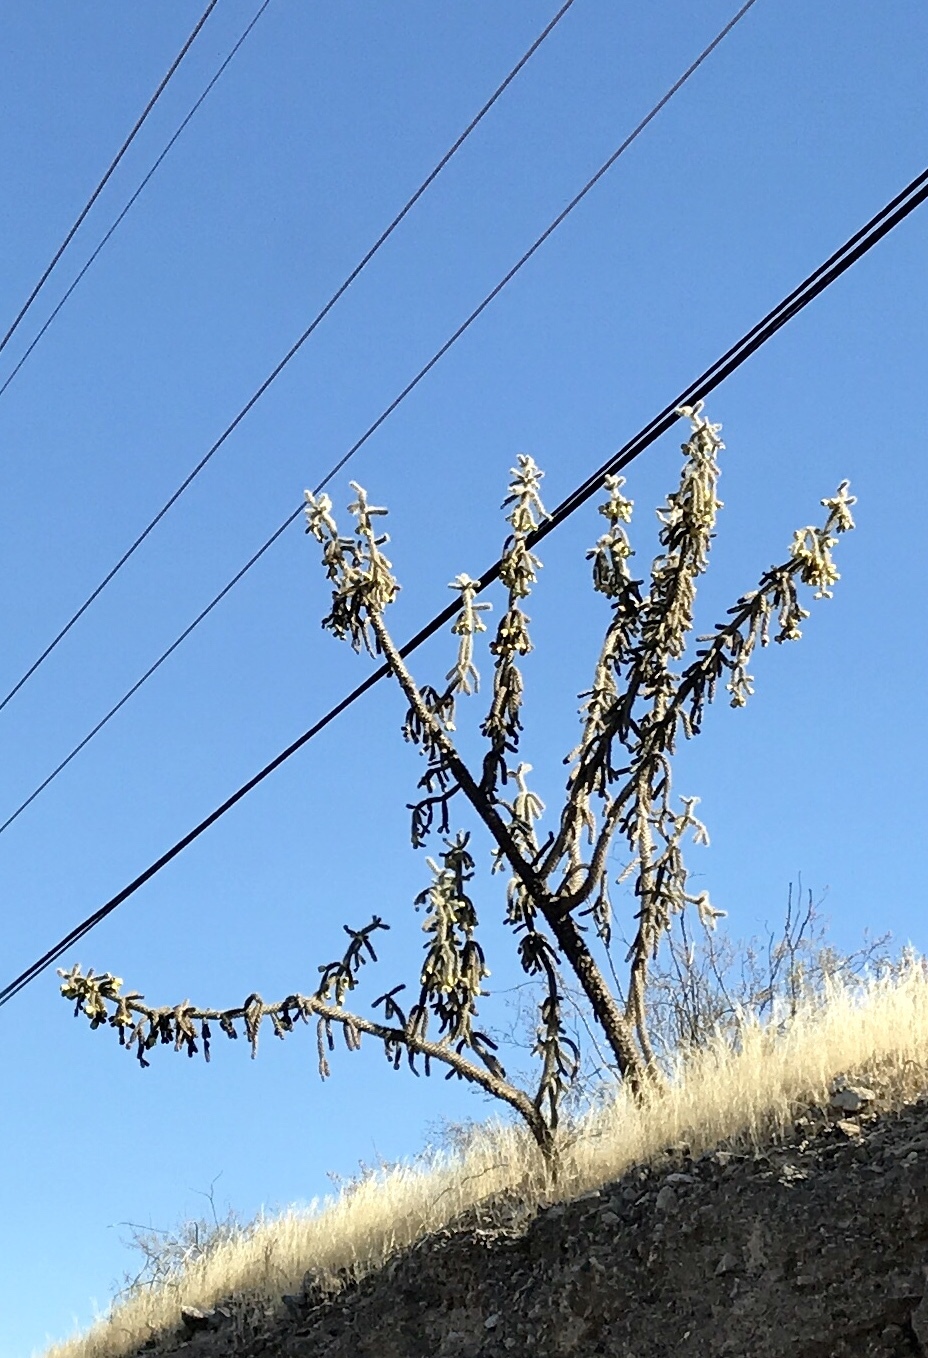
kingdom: Plantae
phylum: Tracheophyta
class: Magnoliopsida
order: Caryophyllales
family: Cactaceae
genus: Cylindropuntia
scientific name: Cylindropuntia imbricata
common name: Candelabrum cactus
